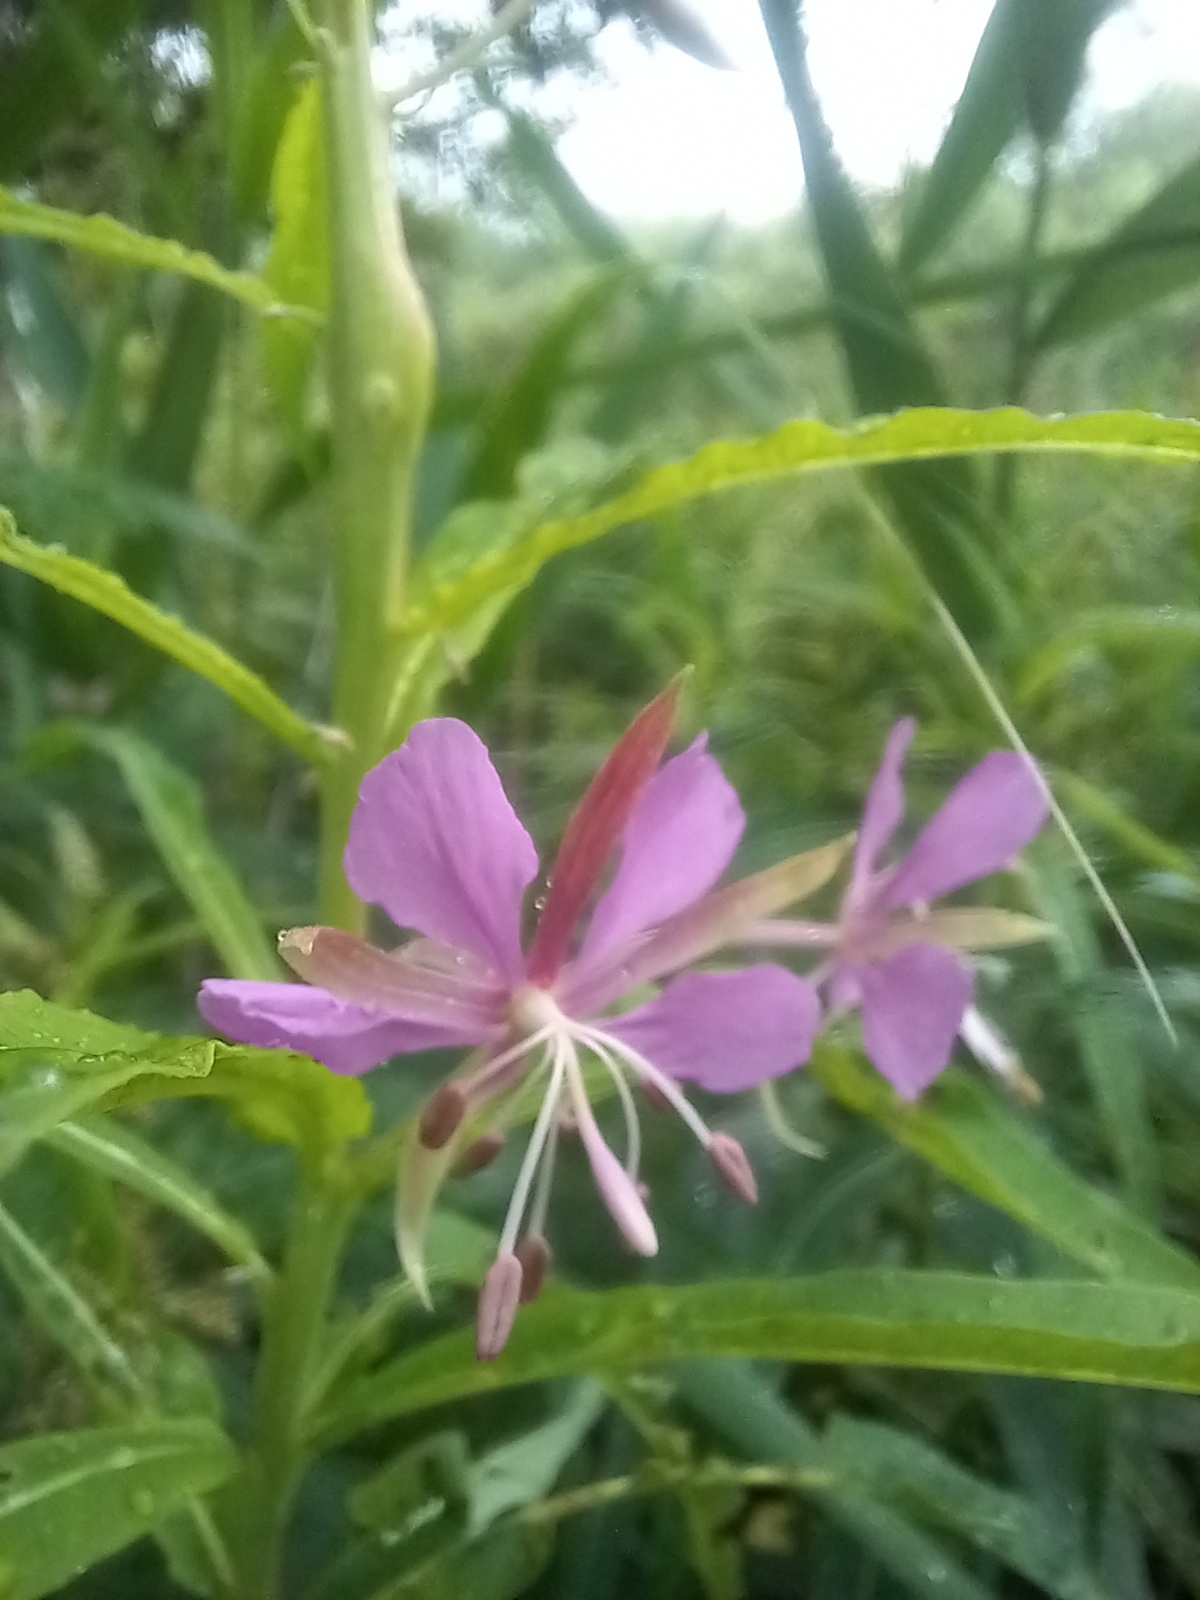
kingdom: Plantae
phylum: Tracheophyta
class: Magnoliopsida
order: Myrtales
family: Onagraceae
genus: Chamaenerion
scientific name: Chamaenerion angustifolium
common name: Fireweed
